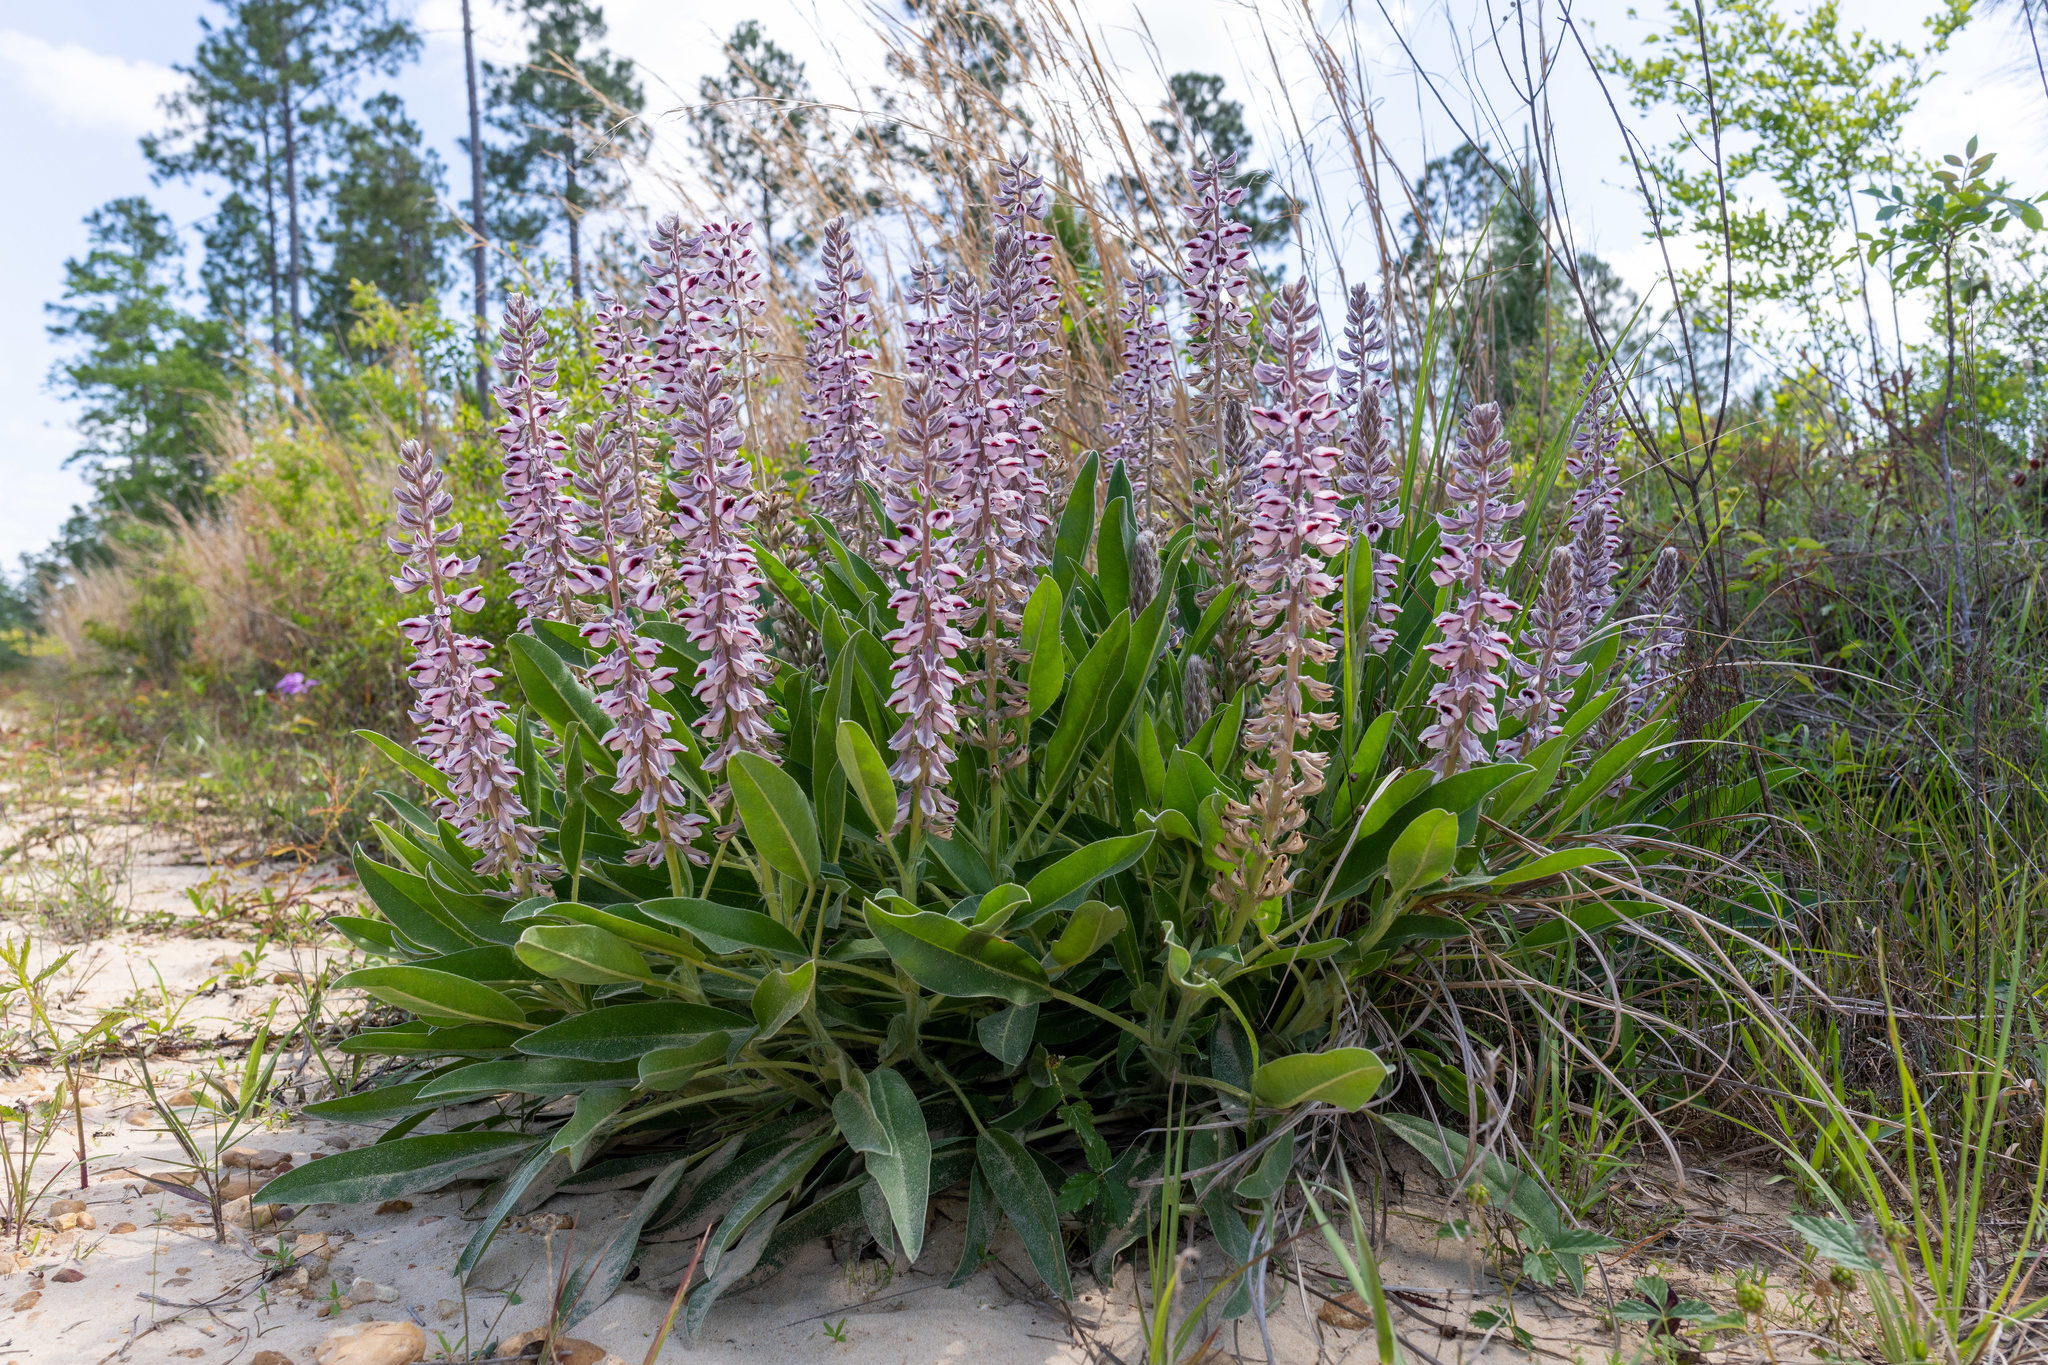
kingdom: Plantae
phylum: Tracheophyta
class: Magnoliopsida
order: Fabales
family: Fabaceae
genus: Lupinus
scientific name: Lupinus villosus
